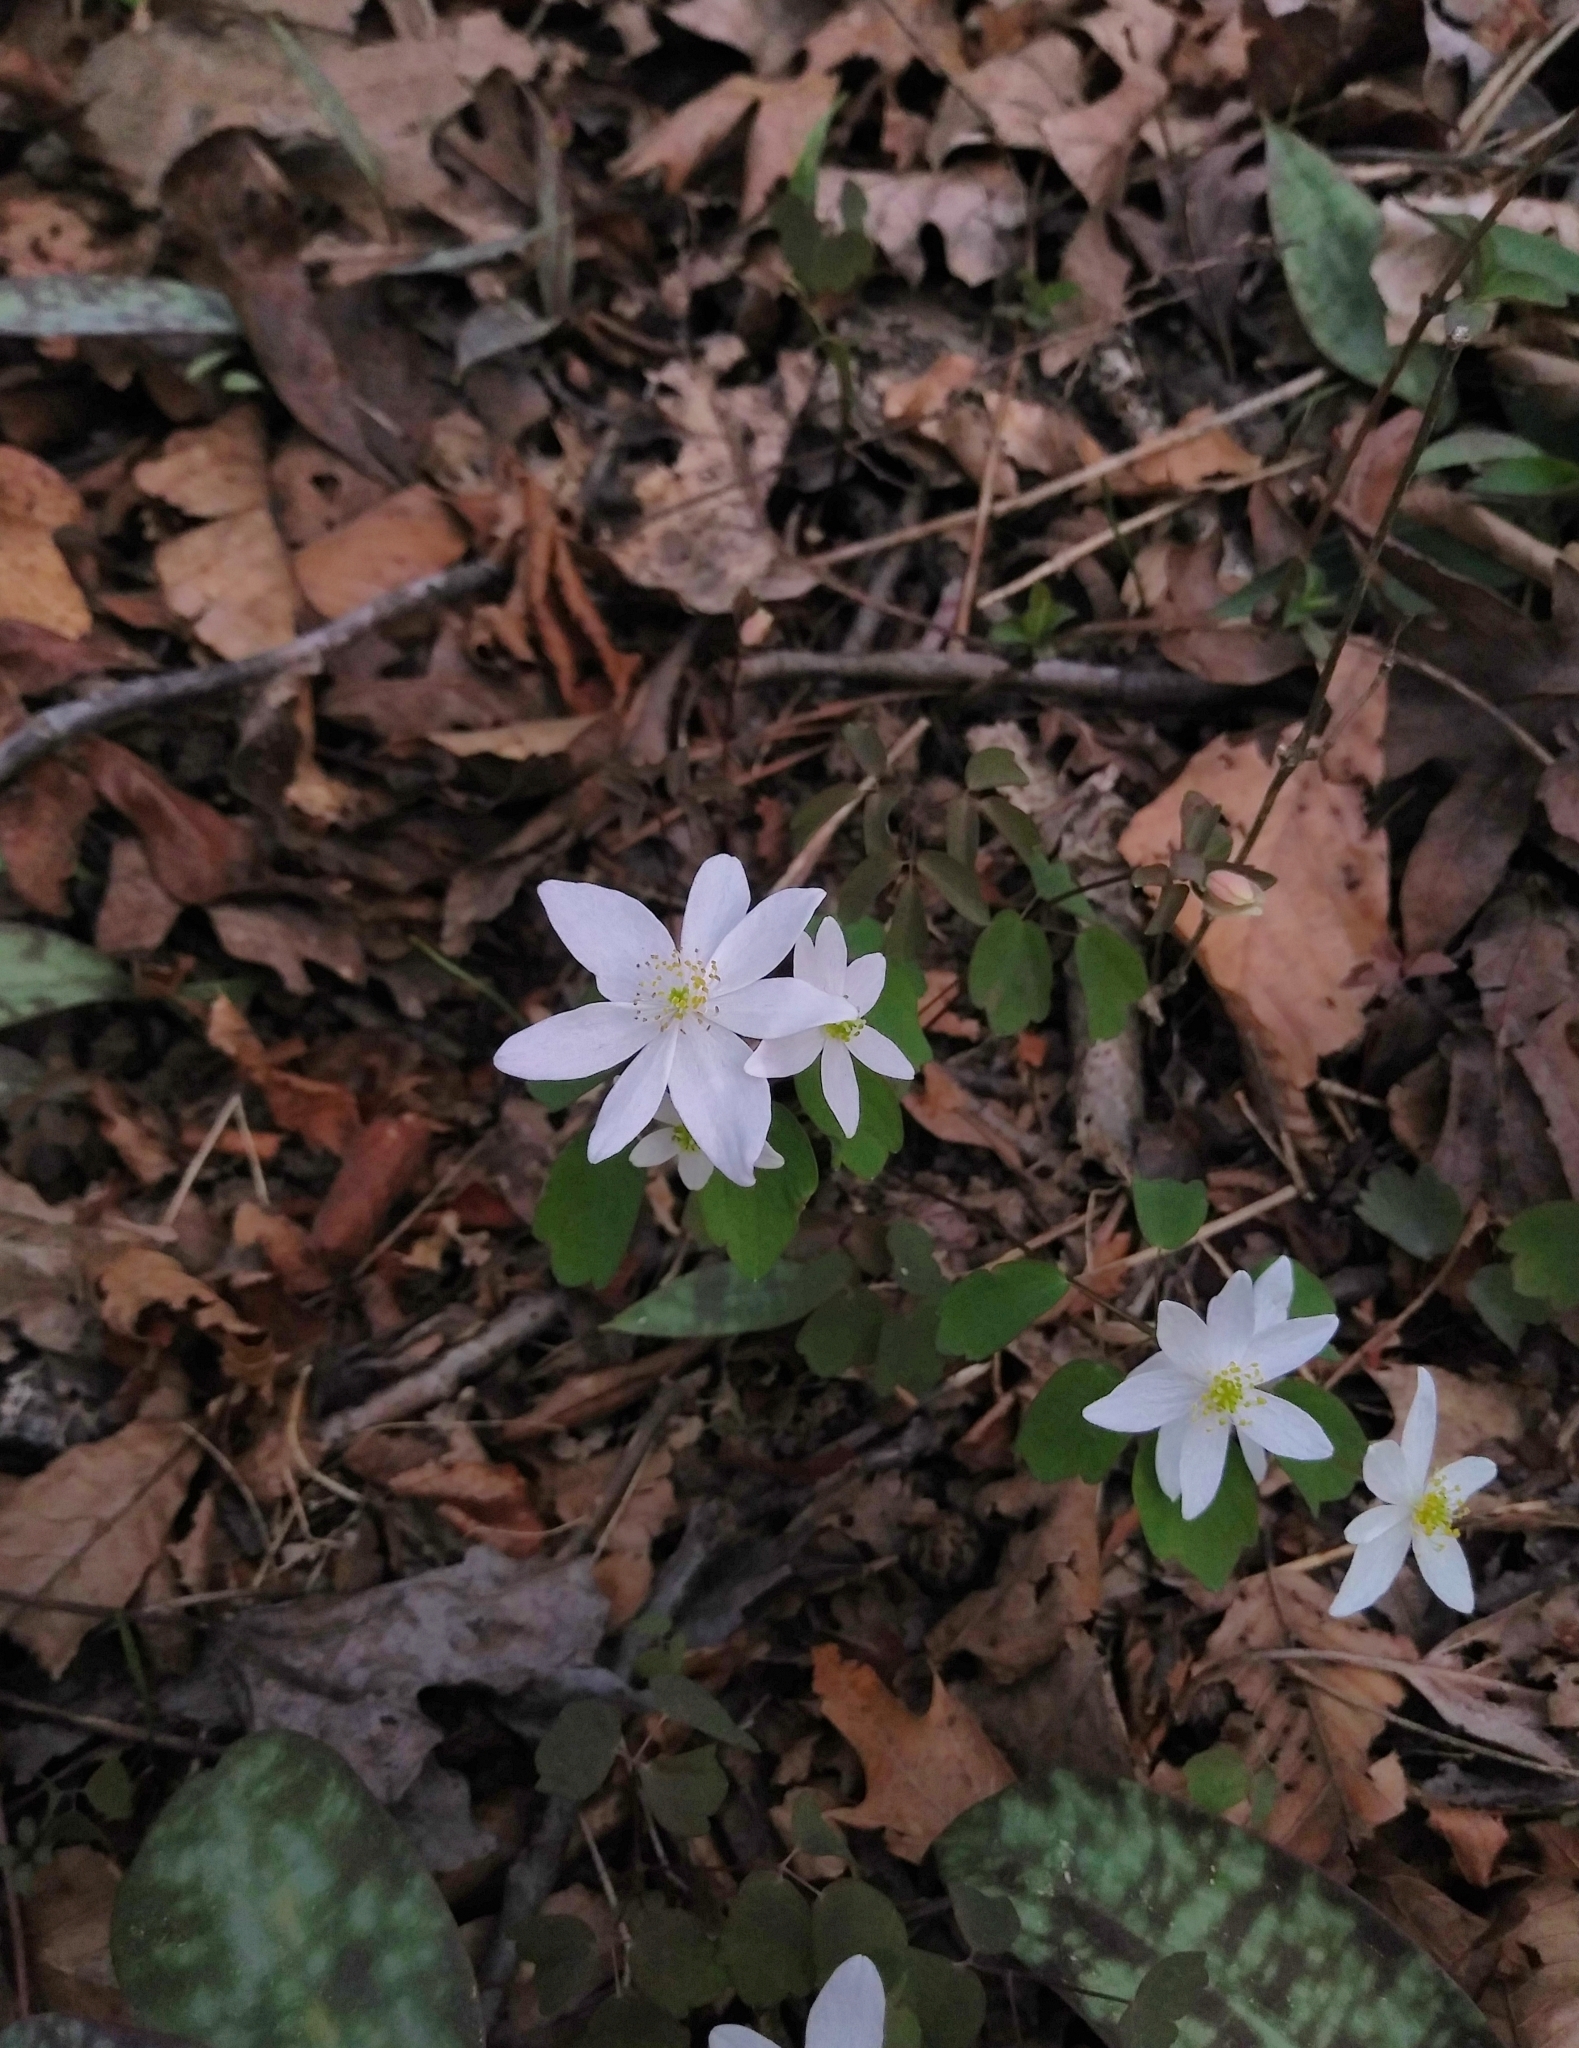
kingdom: Plantae
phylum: Tracheophyta
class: Magnoliopsida
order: Ranunculales
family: Ranunculaceae
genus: Thalictrum
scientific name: Thalictrum thalictroides
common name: Rue-anemone
